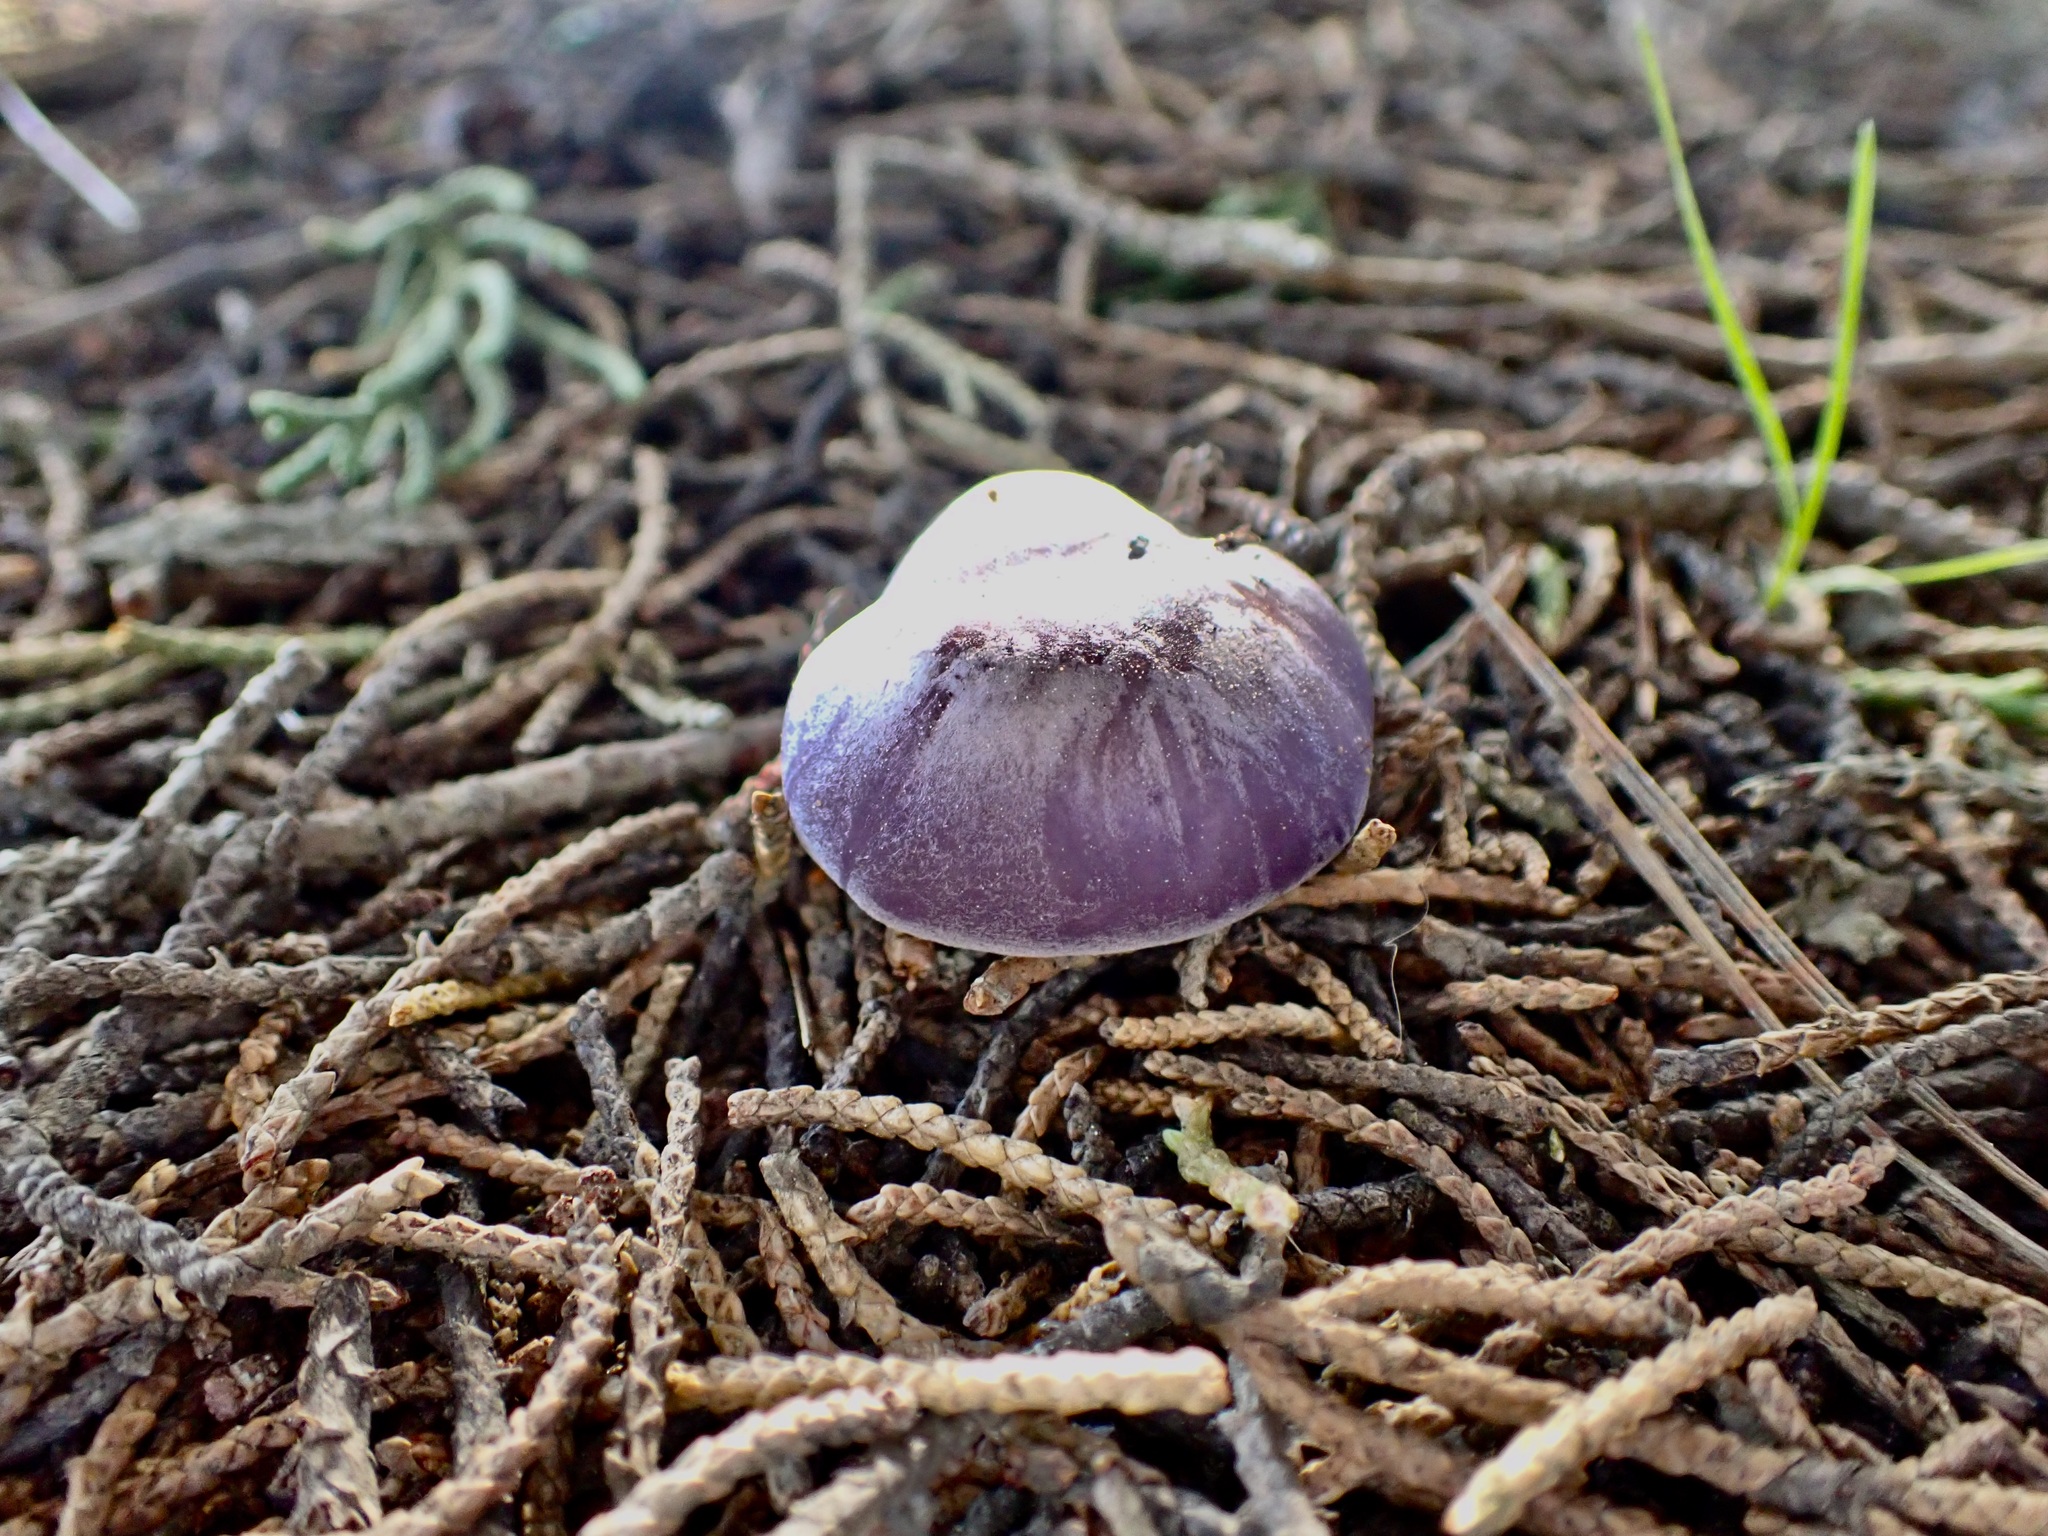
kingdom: Fungi
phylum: Basidiomycota
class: Agaricomycetes
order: Agaricales
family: Tricholomataceae
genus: Collybia
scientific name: Collybia
